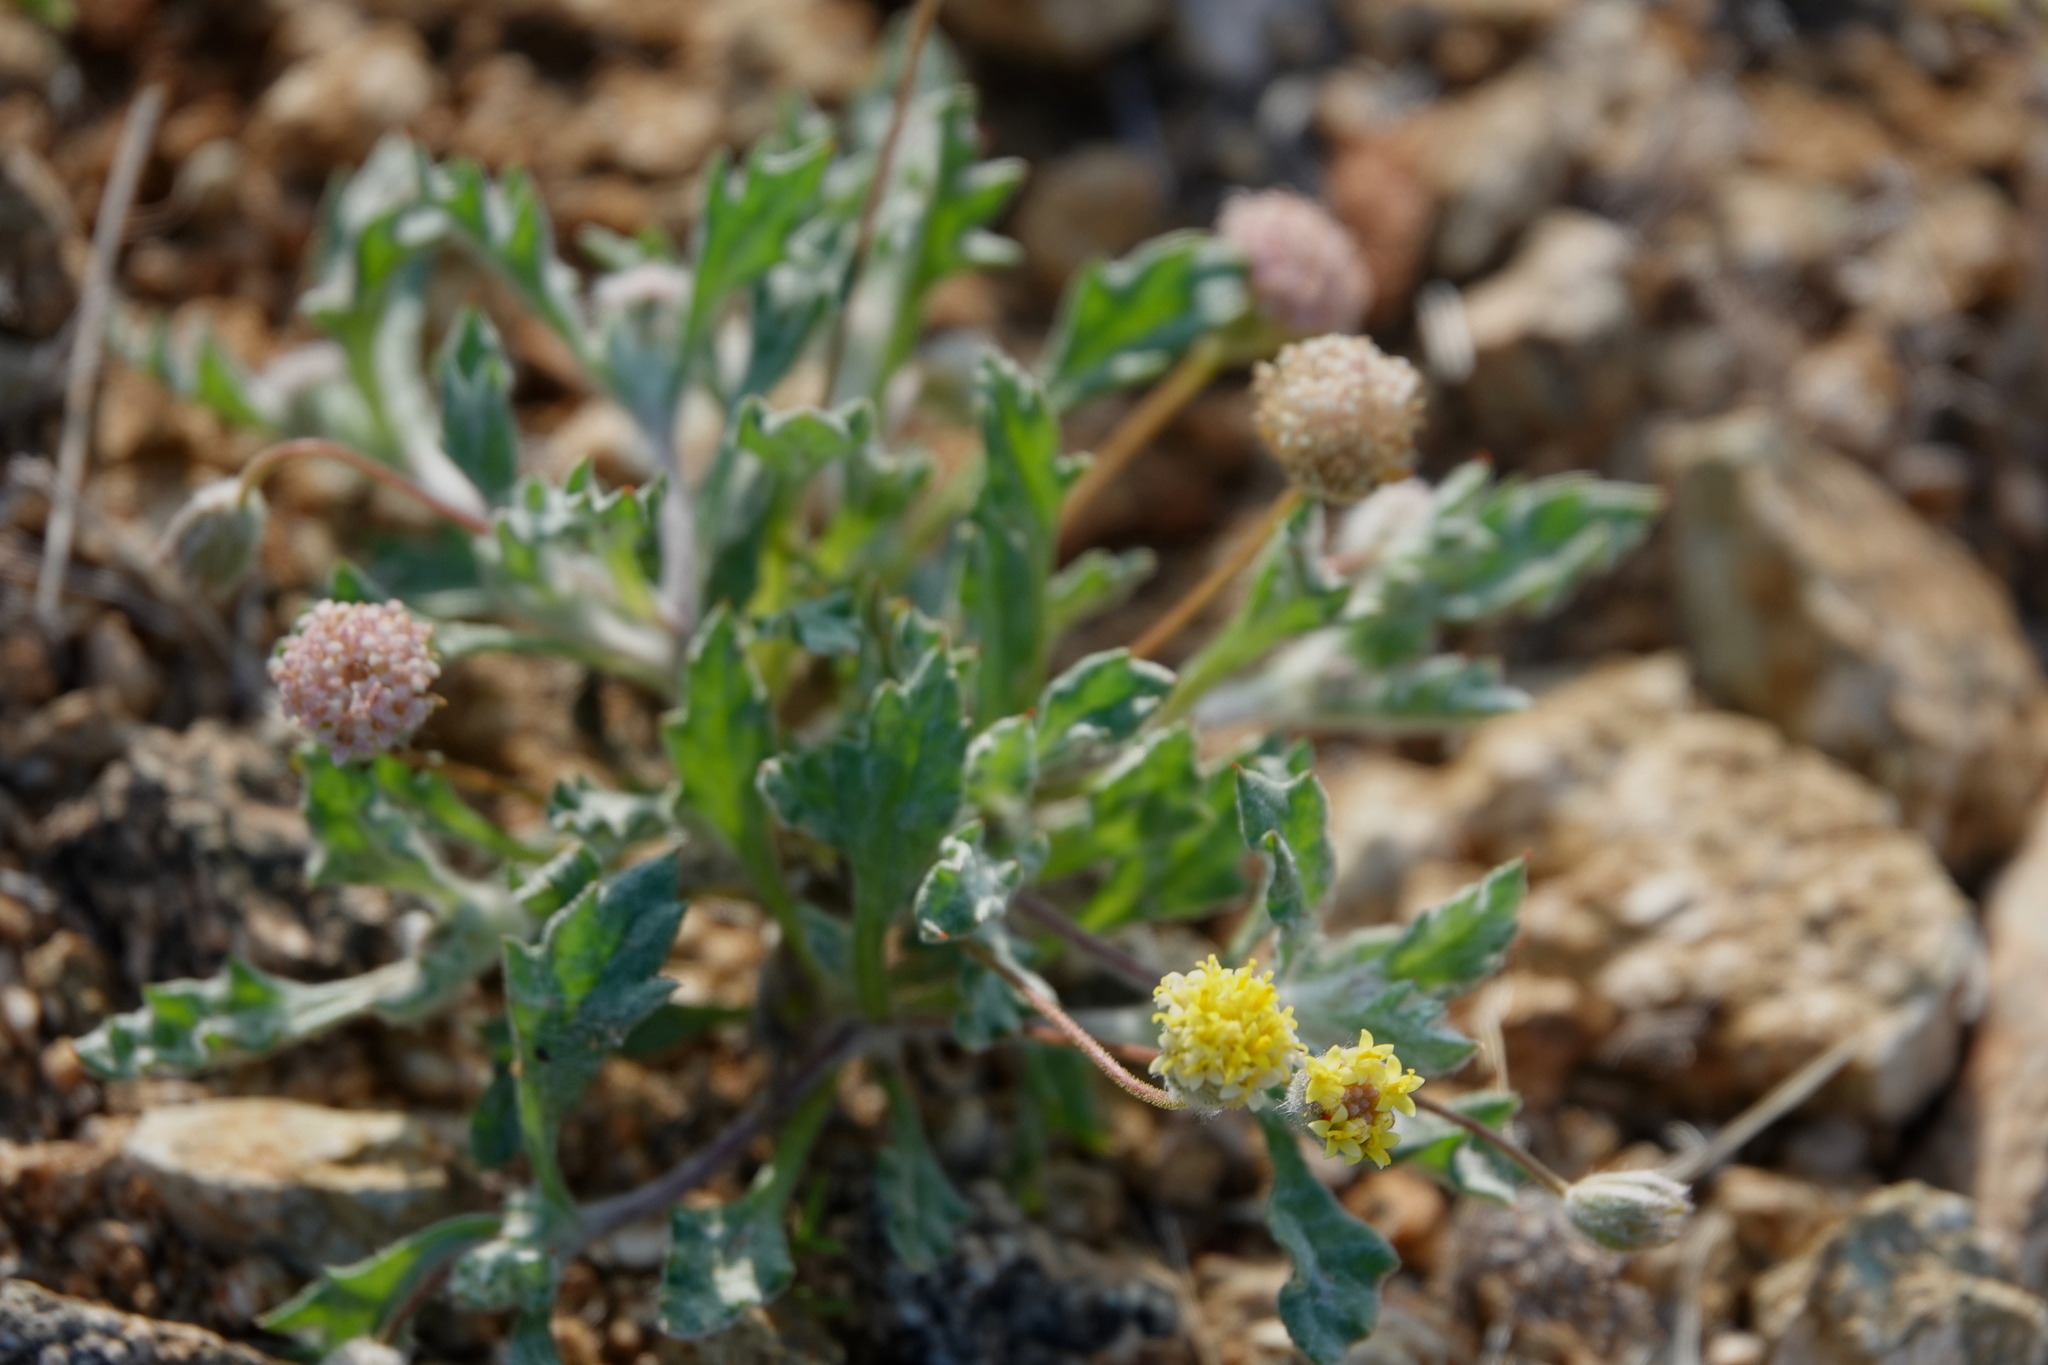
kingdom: Plantae
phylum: Tracheophyta
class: Magnoliopsida
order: Asterales
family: Asteraceae
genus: Trichoptilium
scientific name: Trichoptilium incisum
